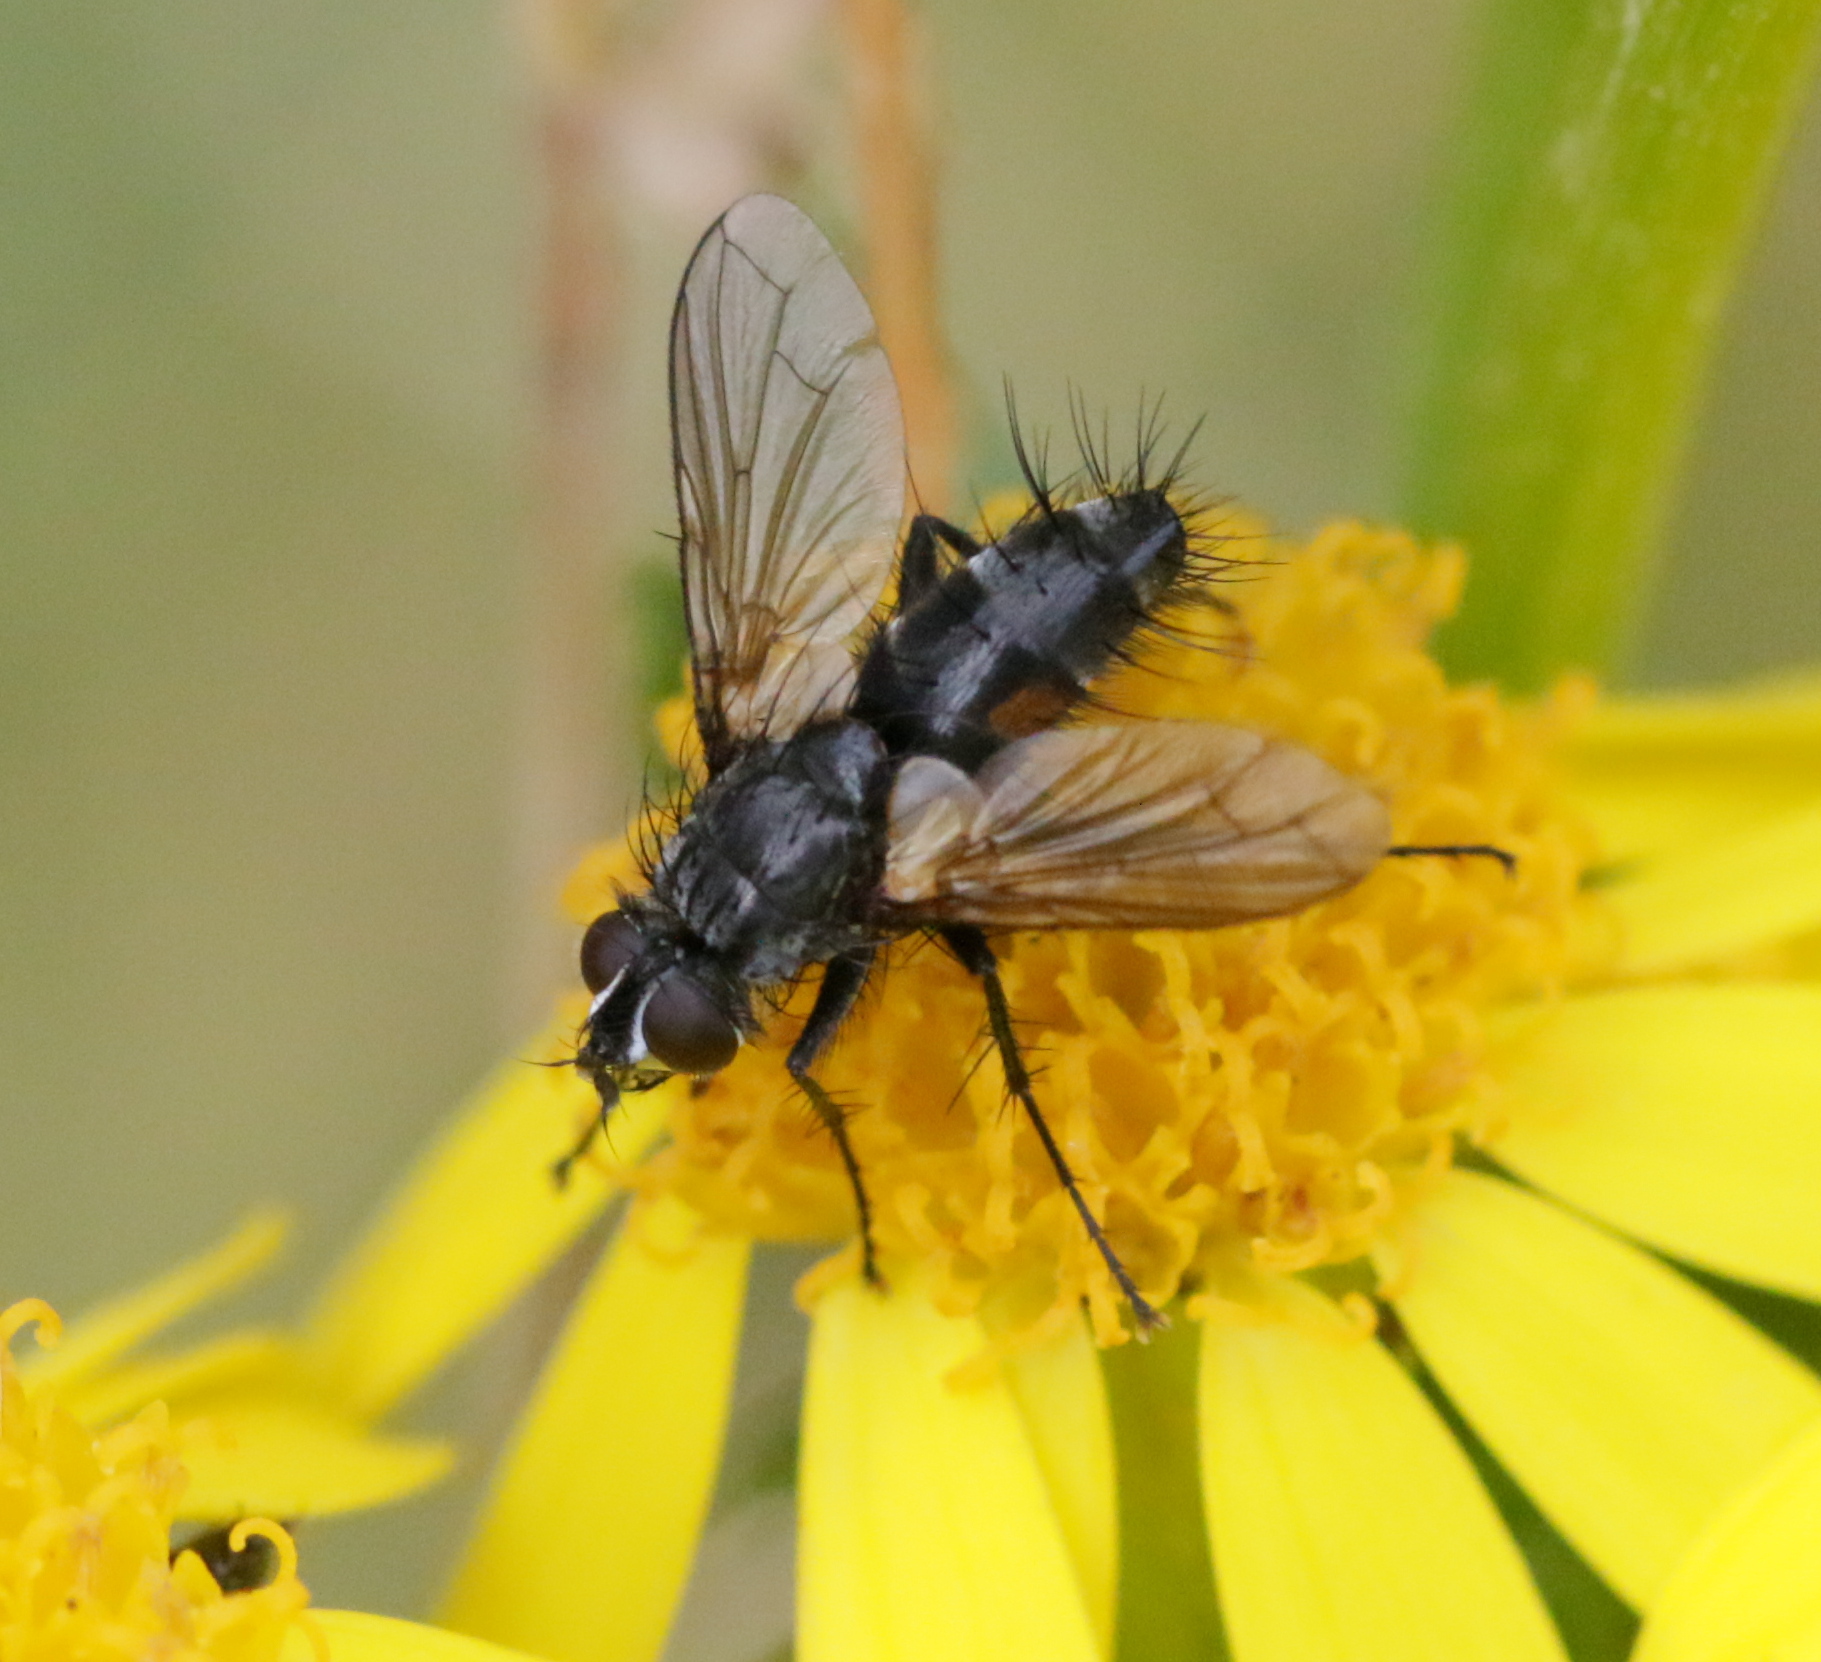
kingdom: Animalia
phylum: Arthropoda
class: Insecta
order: Diptera
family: Tachinidae
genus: Eriothrix
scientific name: Eriothrix rufomaculatus
